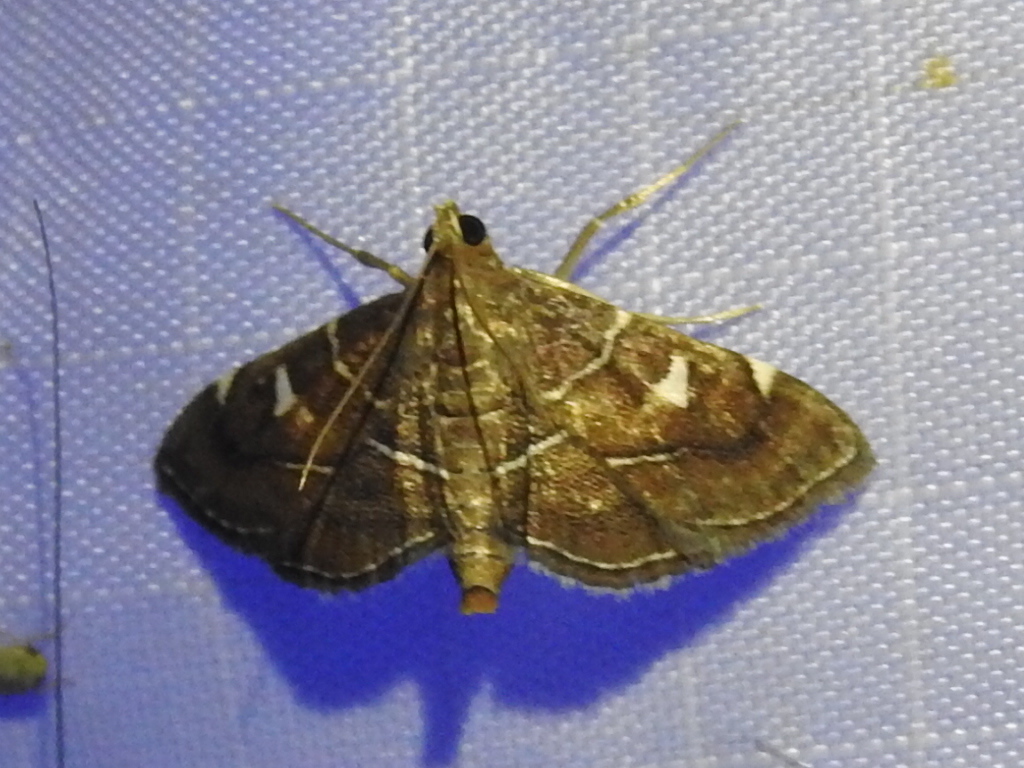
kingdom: Animalia
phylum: Arthropoda
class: Insecta
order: Lepidoptera
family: Crambidae
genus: Lamprosema
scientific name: Lamprosema victoriae
